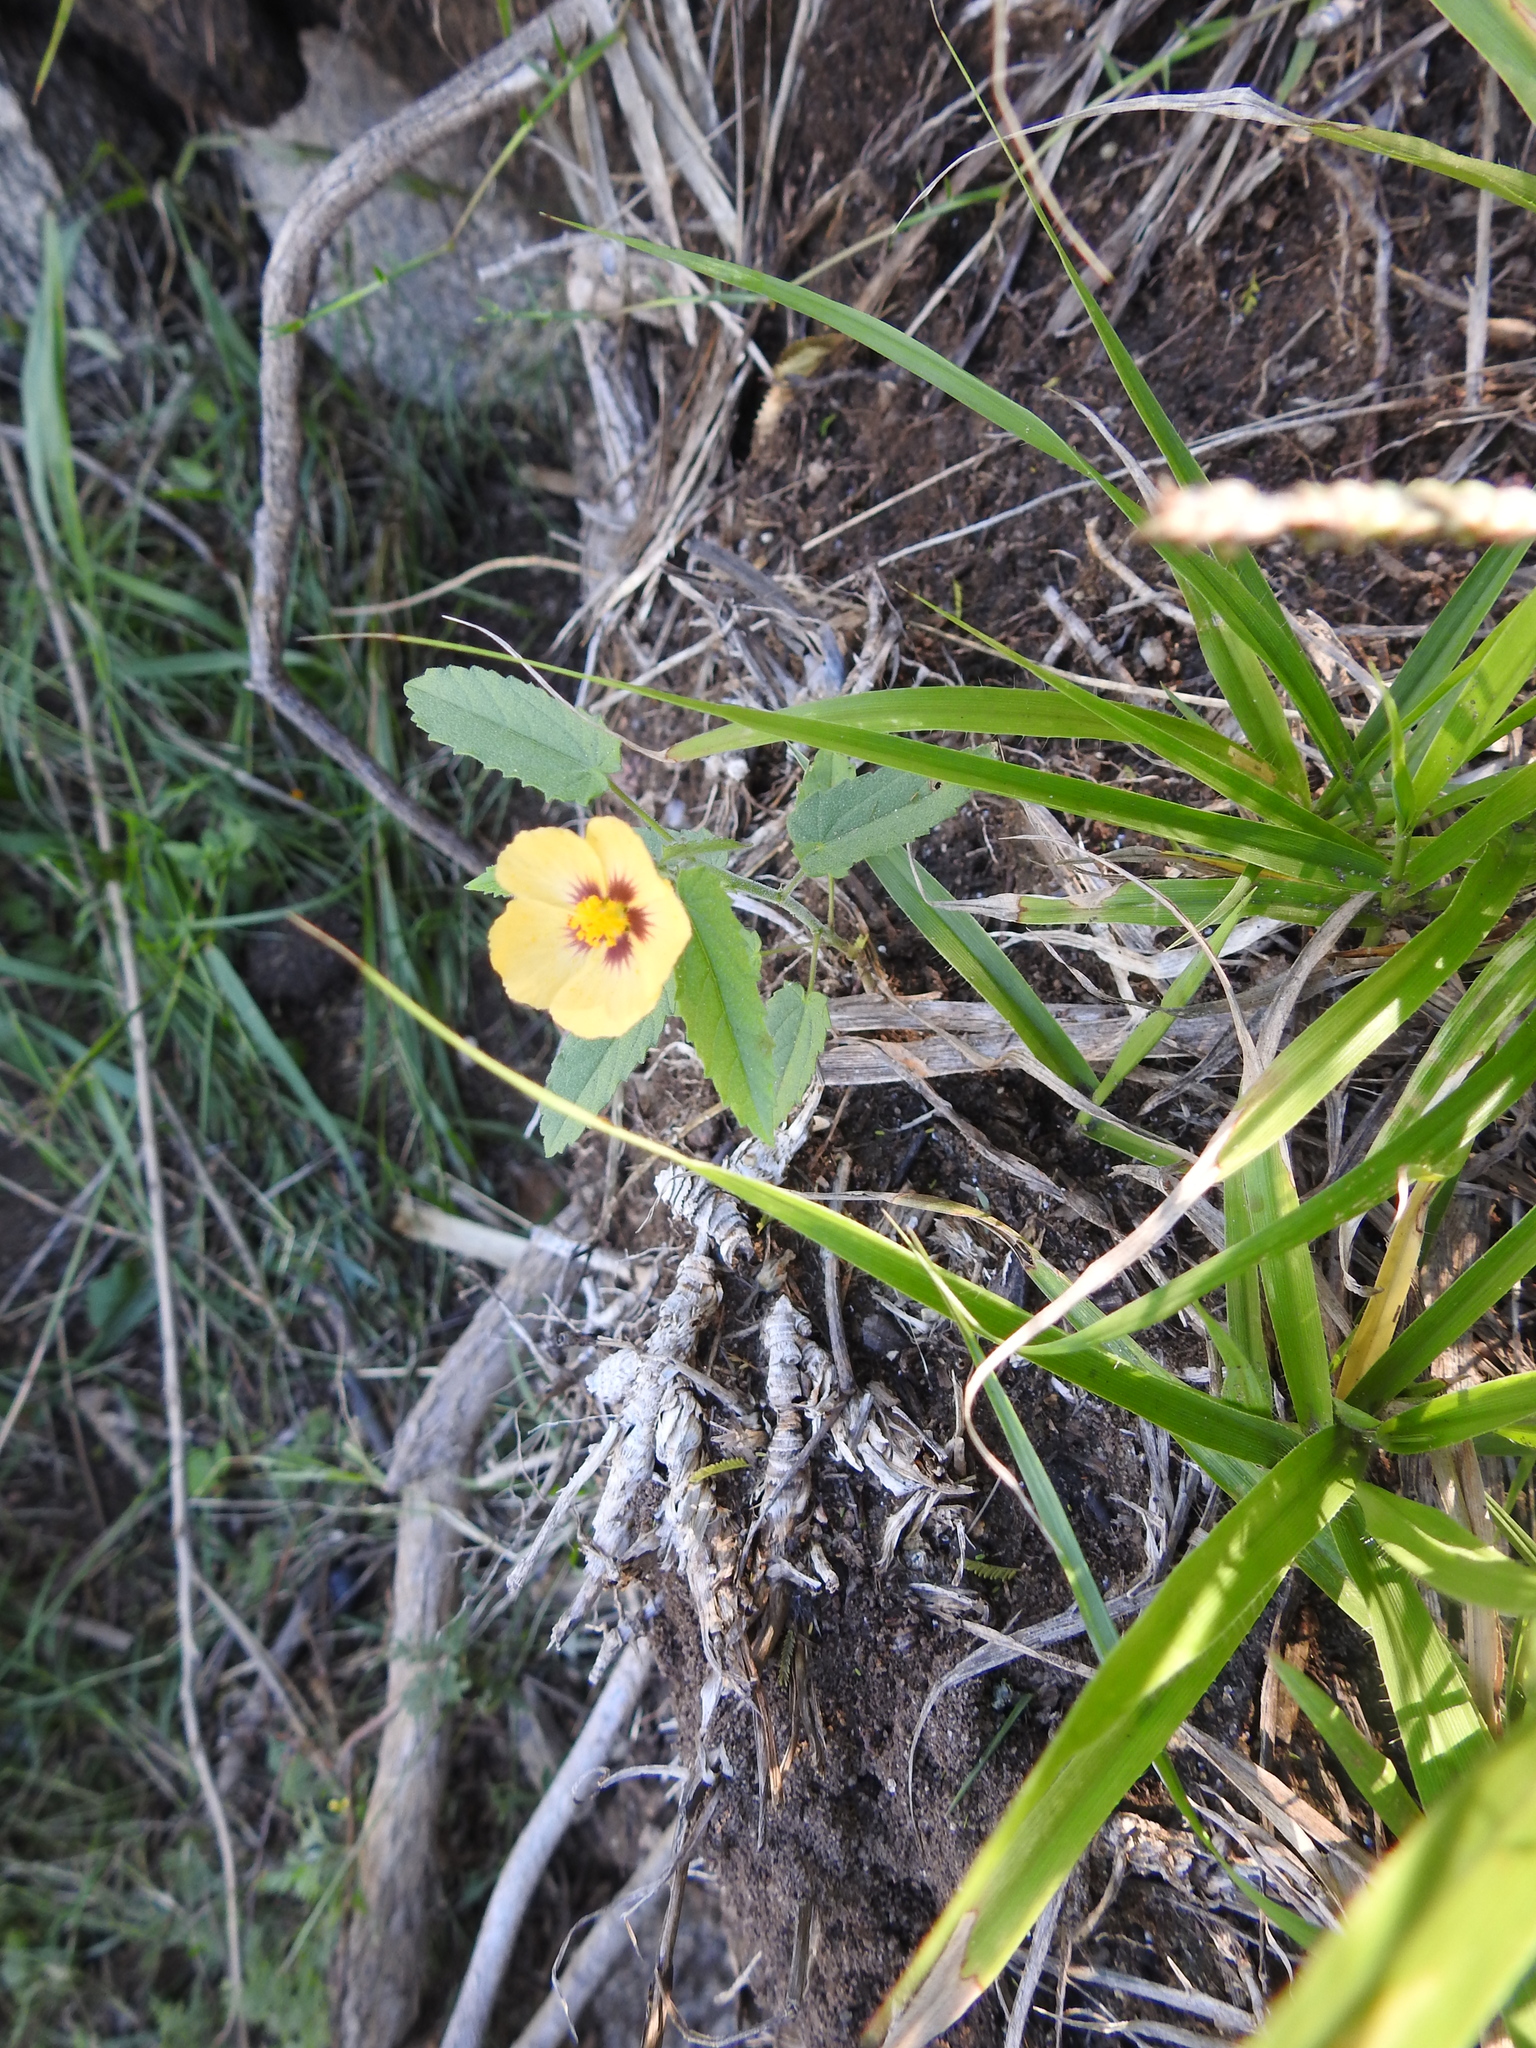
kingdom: Plantae
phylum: Tracheophyta
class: Magnoliopsida
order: Malvales
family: Malvaceae
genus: Gaya
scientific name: Gaya parviflora
